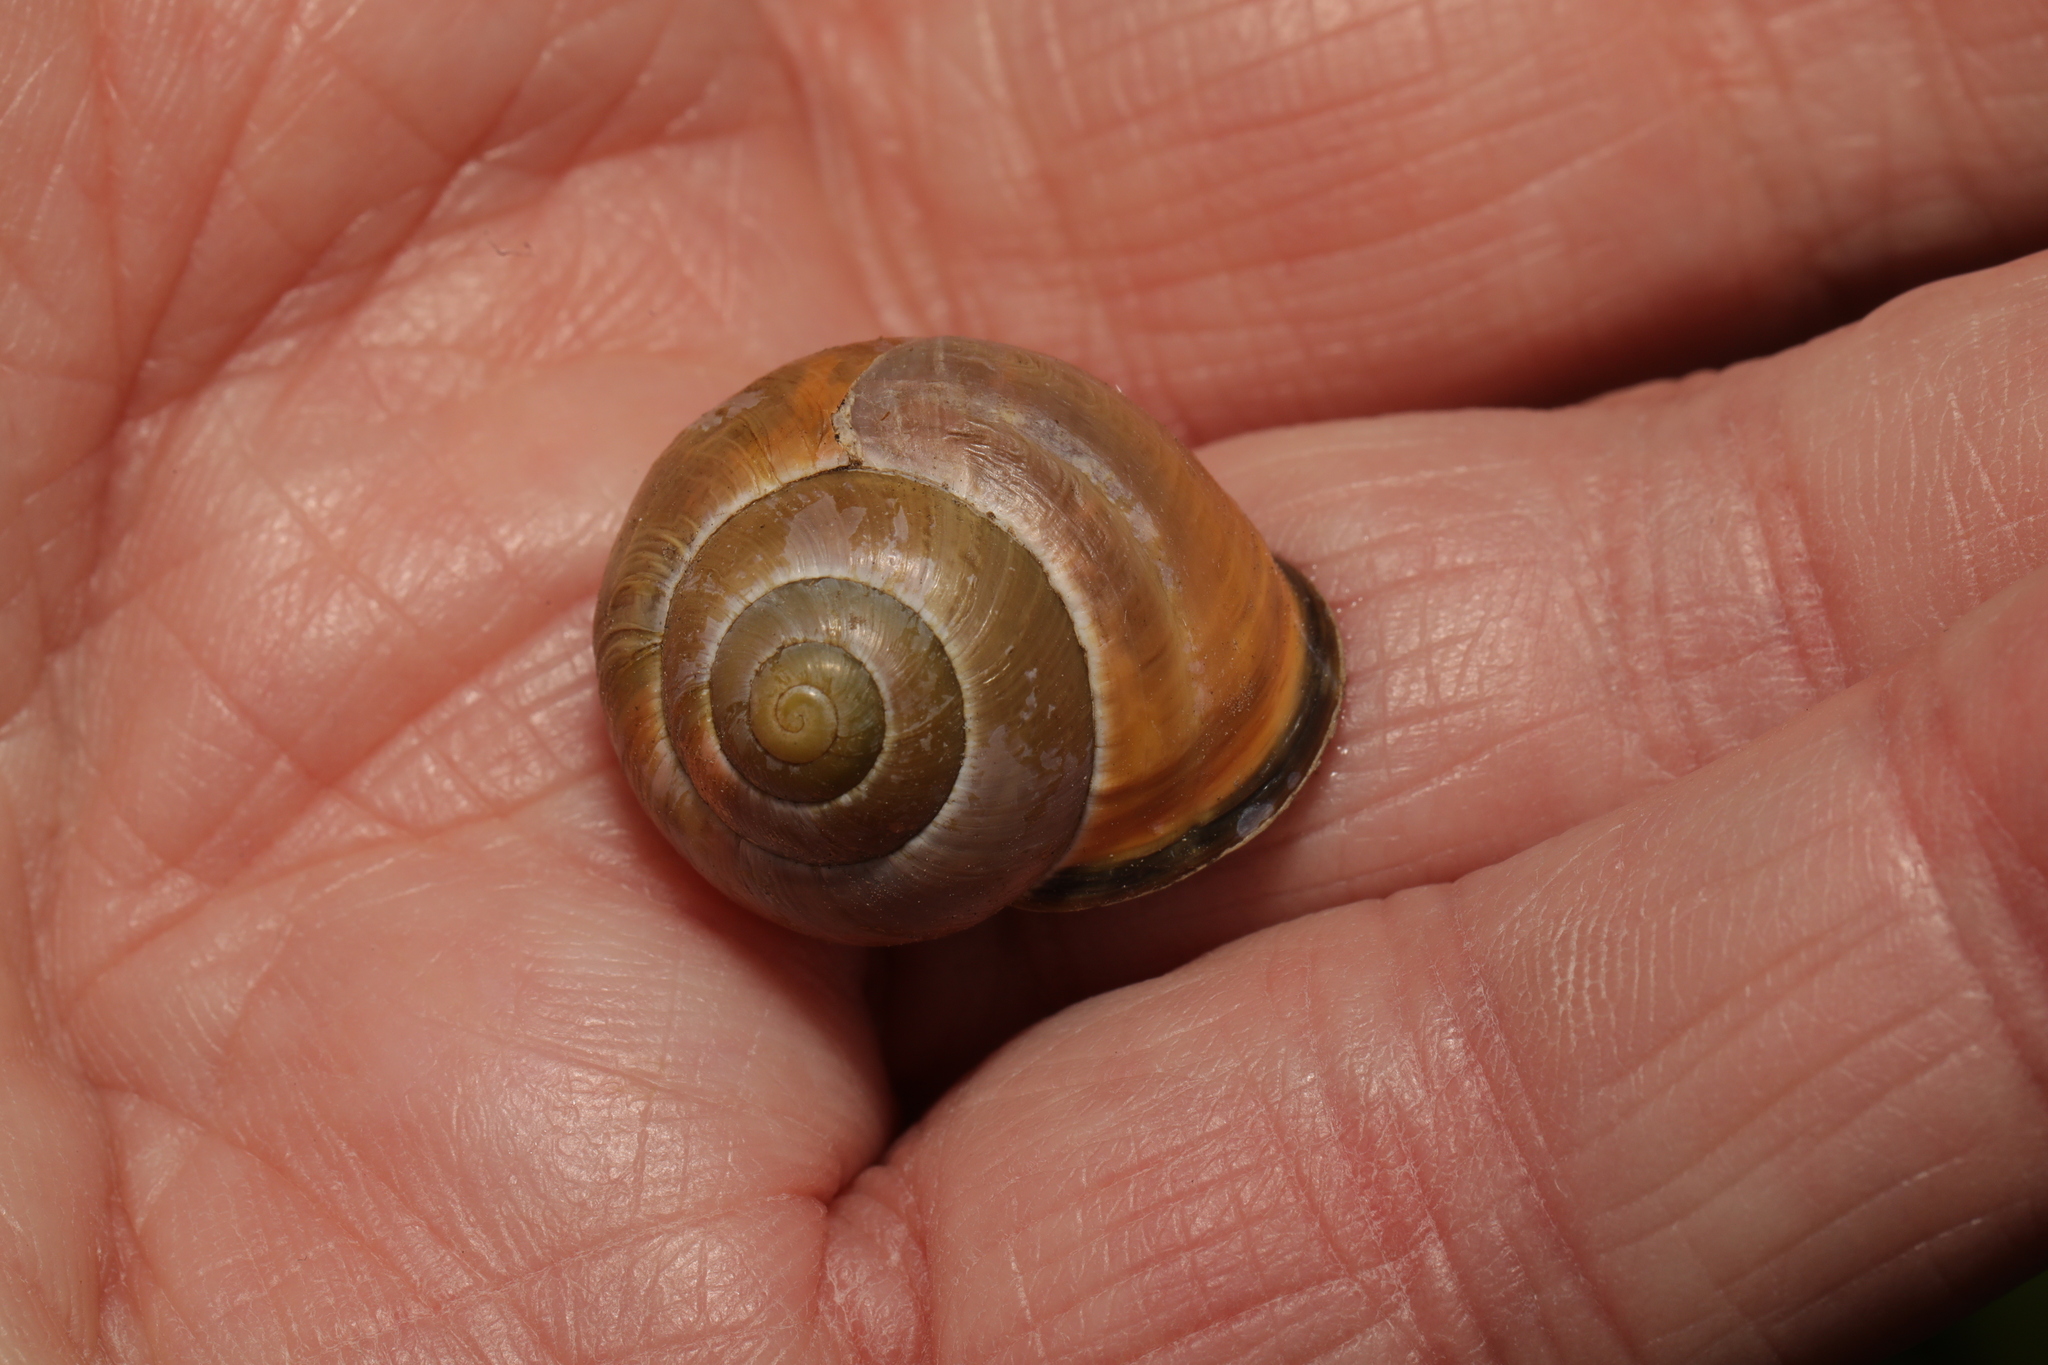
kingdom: Animalia
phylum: Mollusca
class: Gastropoda
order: Stylommatophora
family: Helicidae
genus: Cepaea
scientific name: Cepaea nemoralis
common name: Grovesnail
